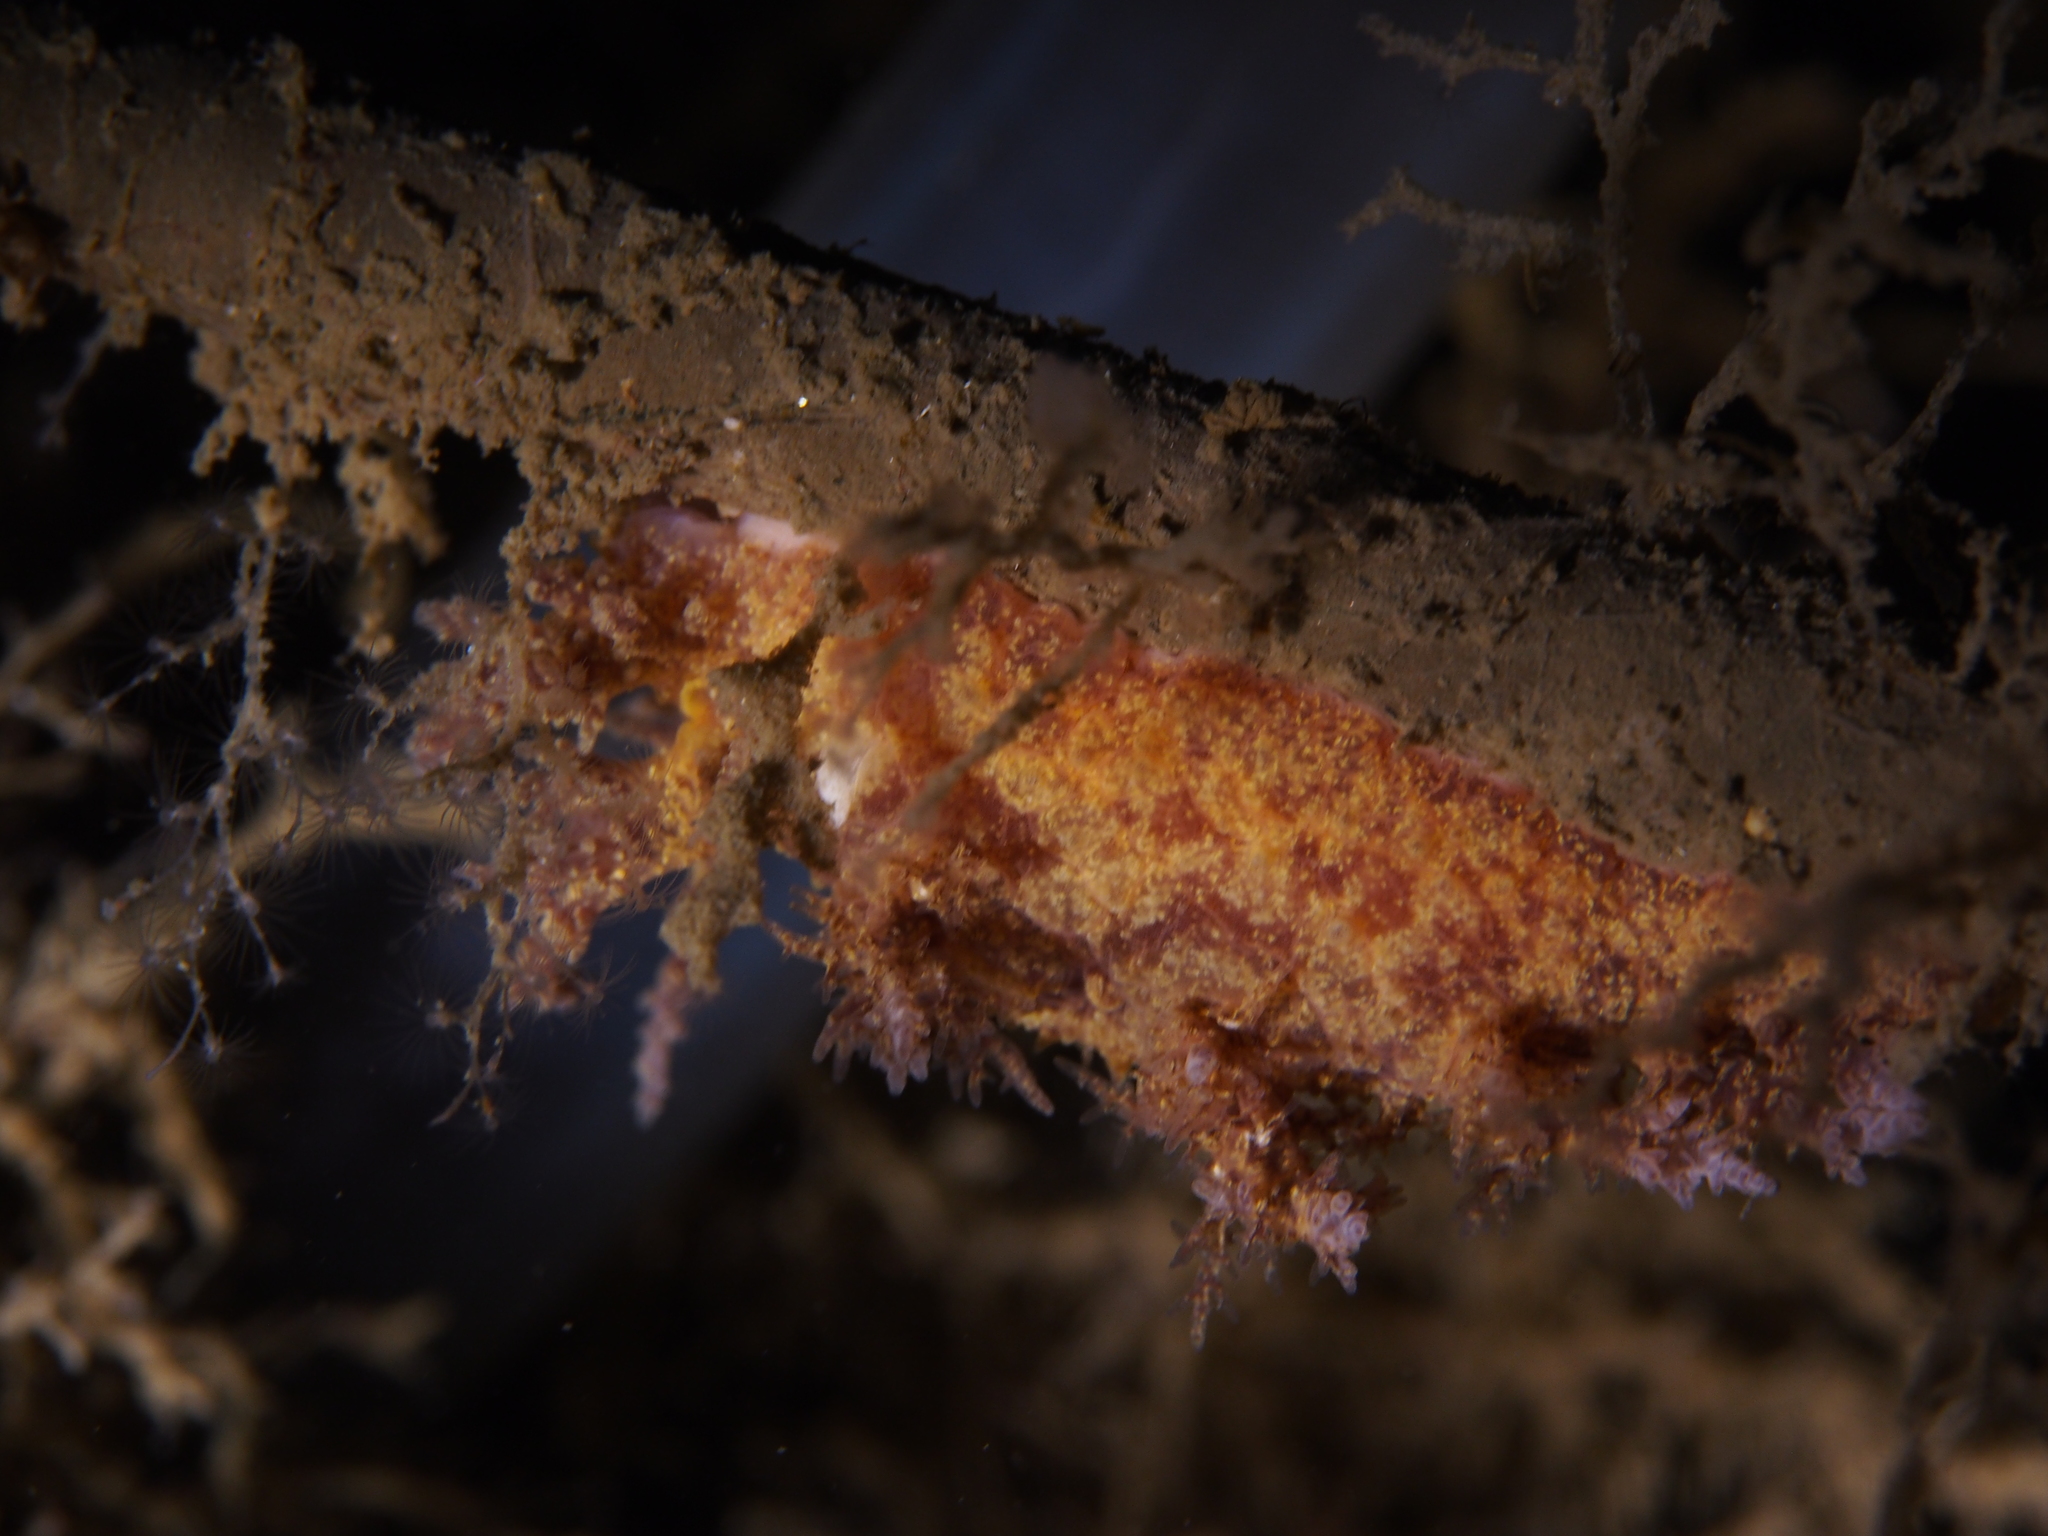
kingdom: Animalia
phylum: Mollusca
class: Gastropoda
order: Nudibranchia
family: Dendronotidae
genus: Dendronotus
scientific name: Dendronotus europaeus
